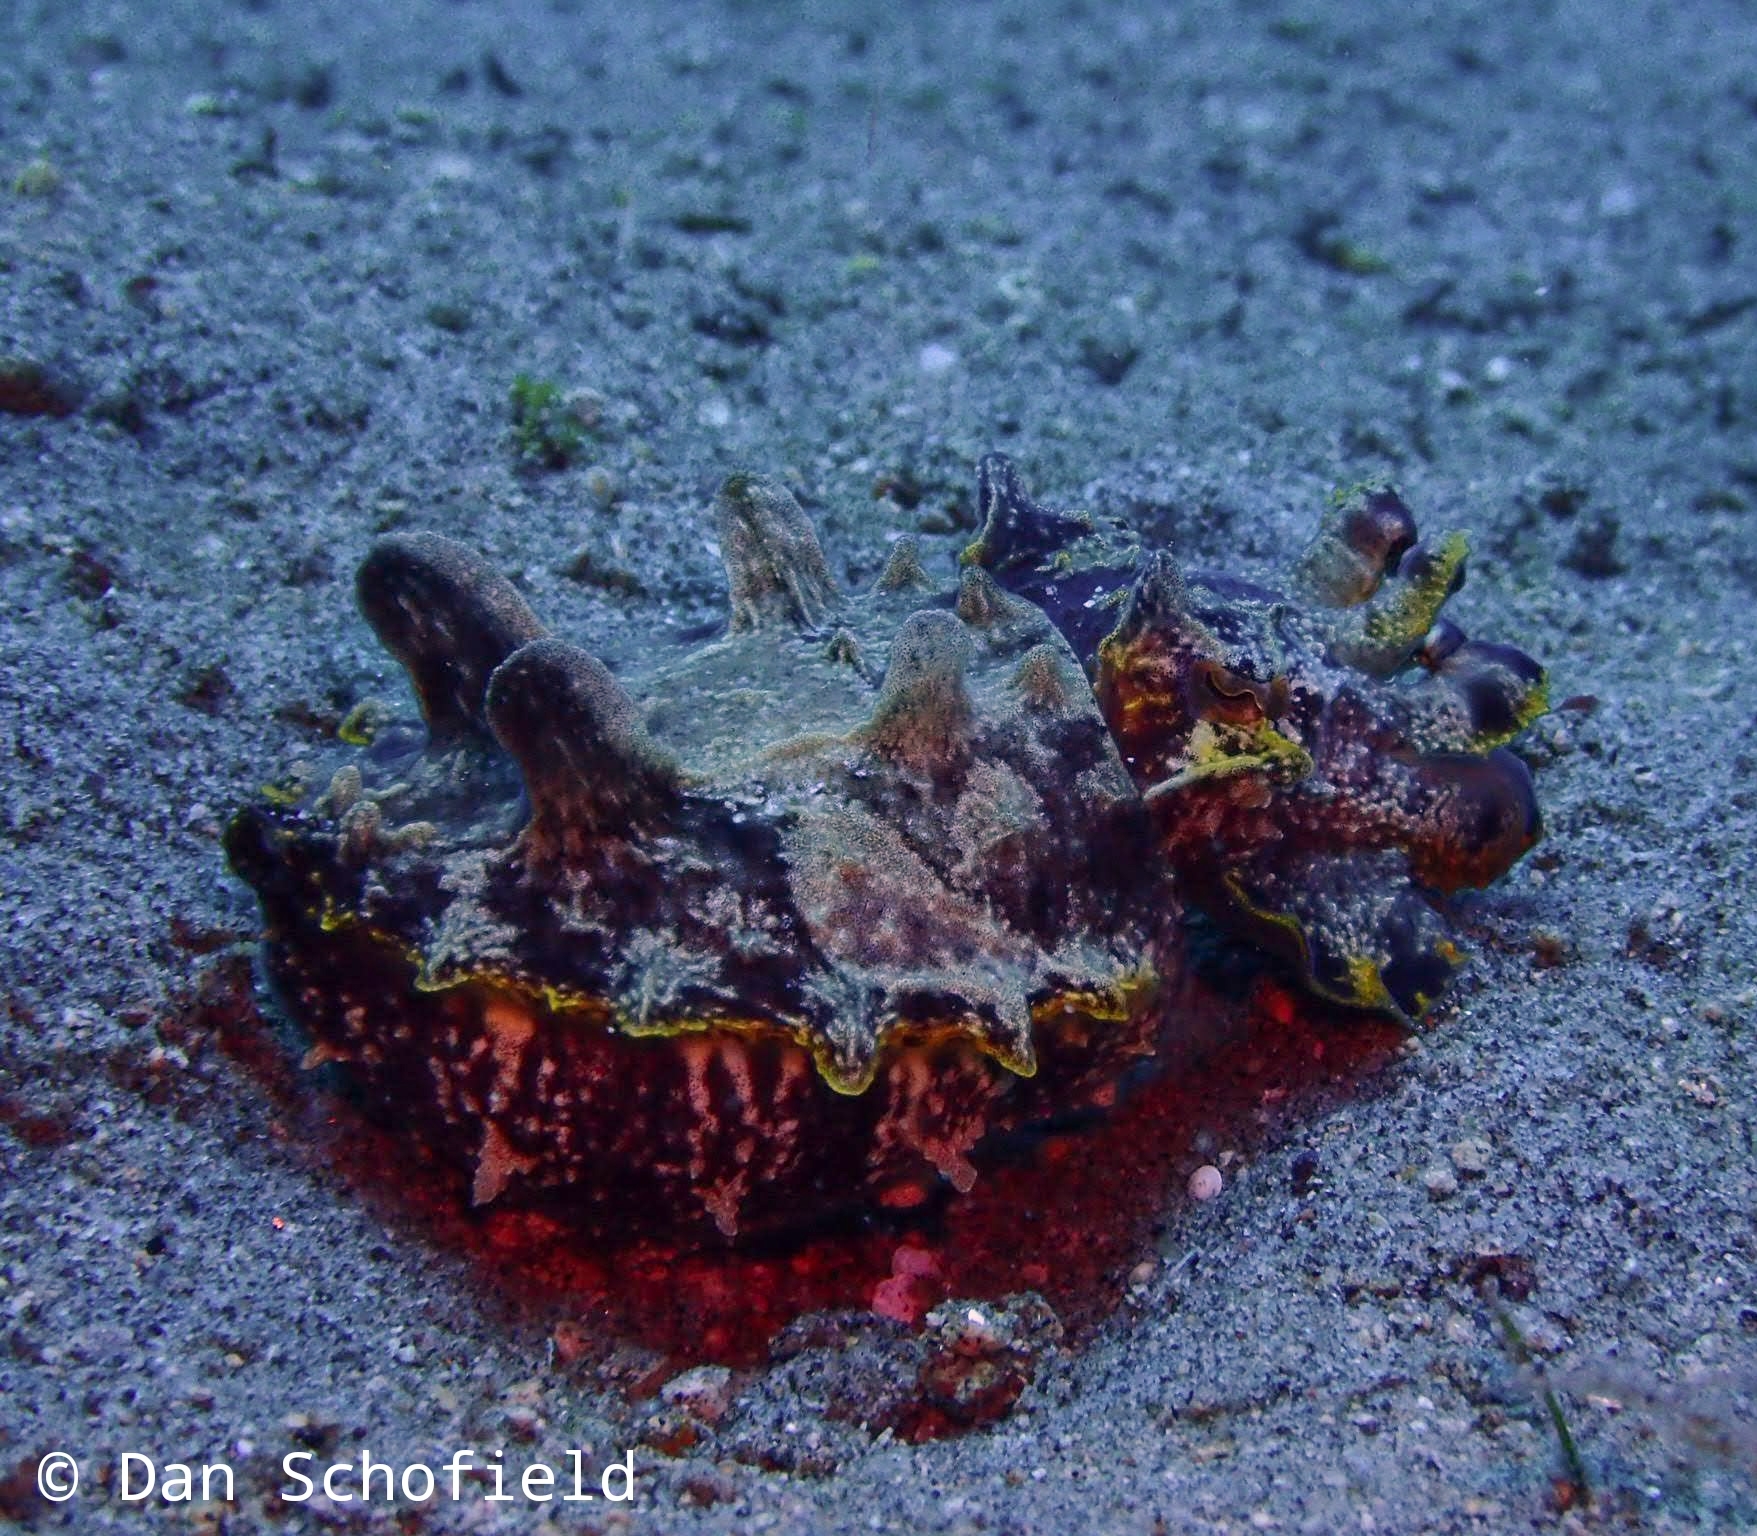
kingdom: Animalia
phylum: Mollusca
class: Cephalopoda
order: Sepiida
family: Sepiidae
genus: Ascarosepion
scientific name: Ascarosepion pfefferi
